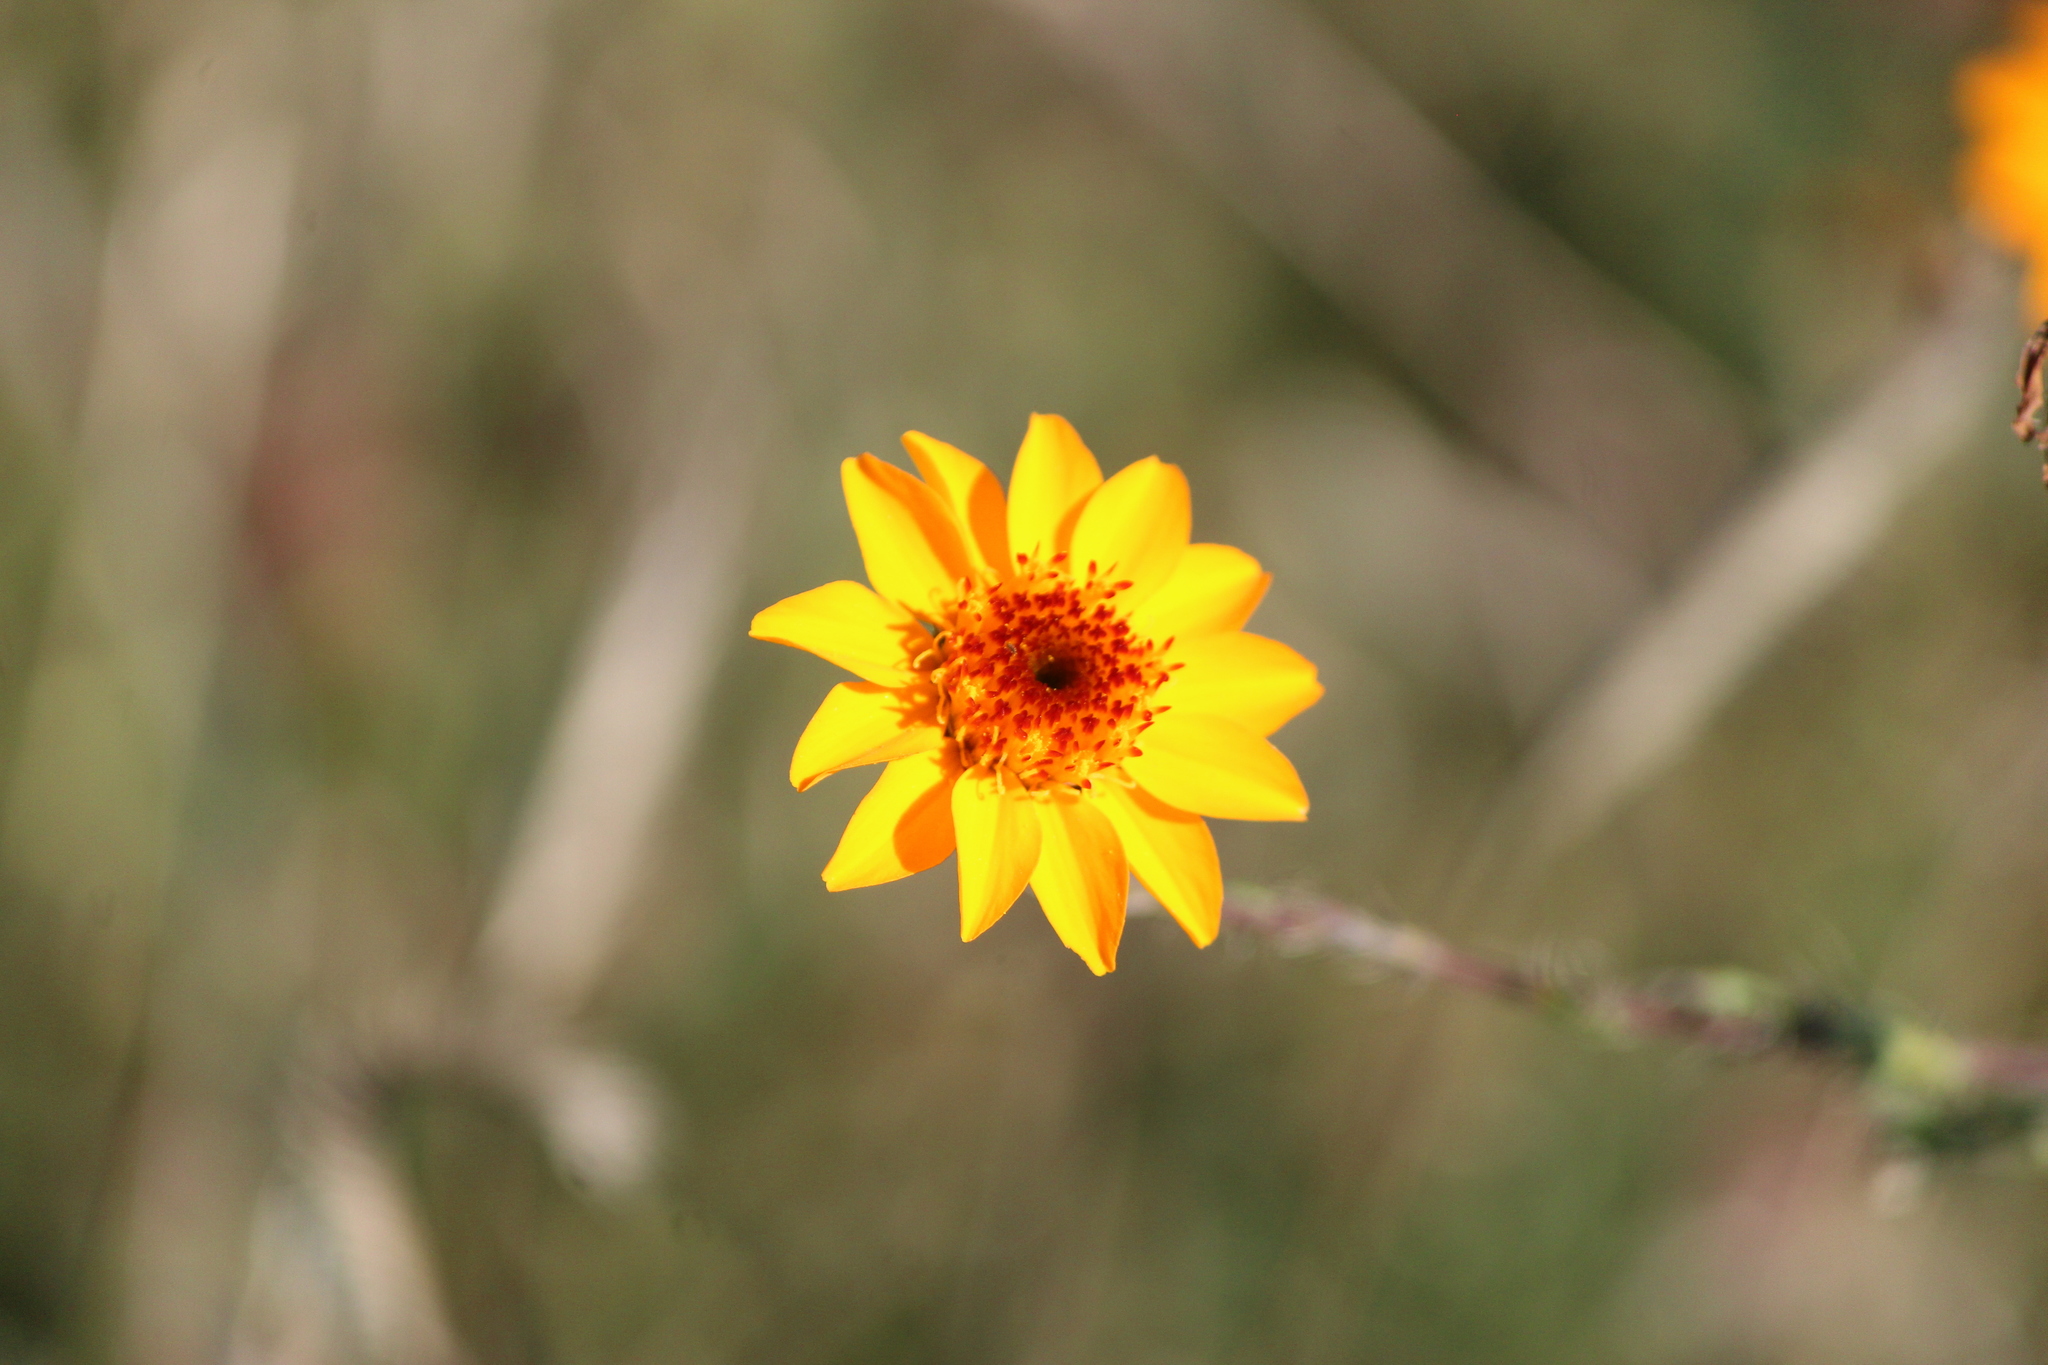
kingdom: Plantae
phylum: Tracheophyta
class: Magnoliopsida
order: Asterales
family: Asteraceae
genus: Adenophyllum
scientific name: Adenophyllum cancellatum
